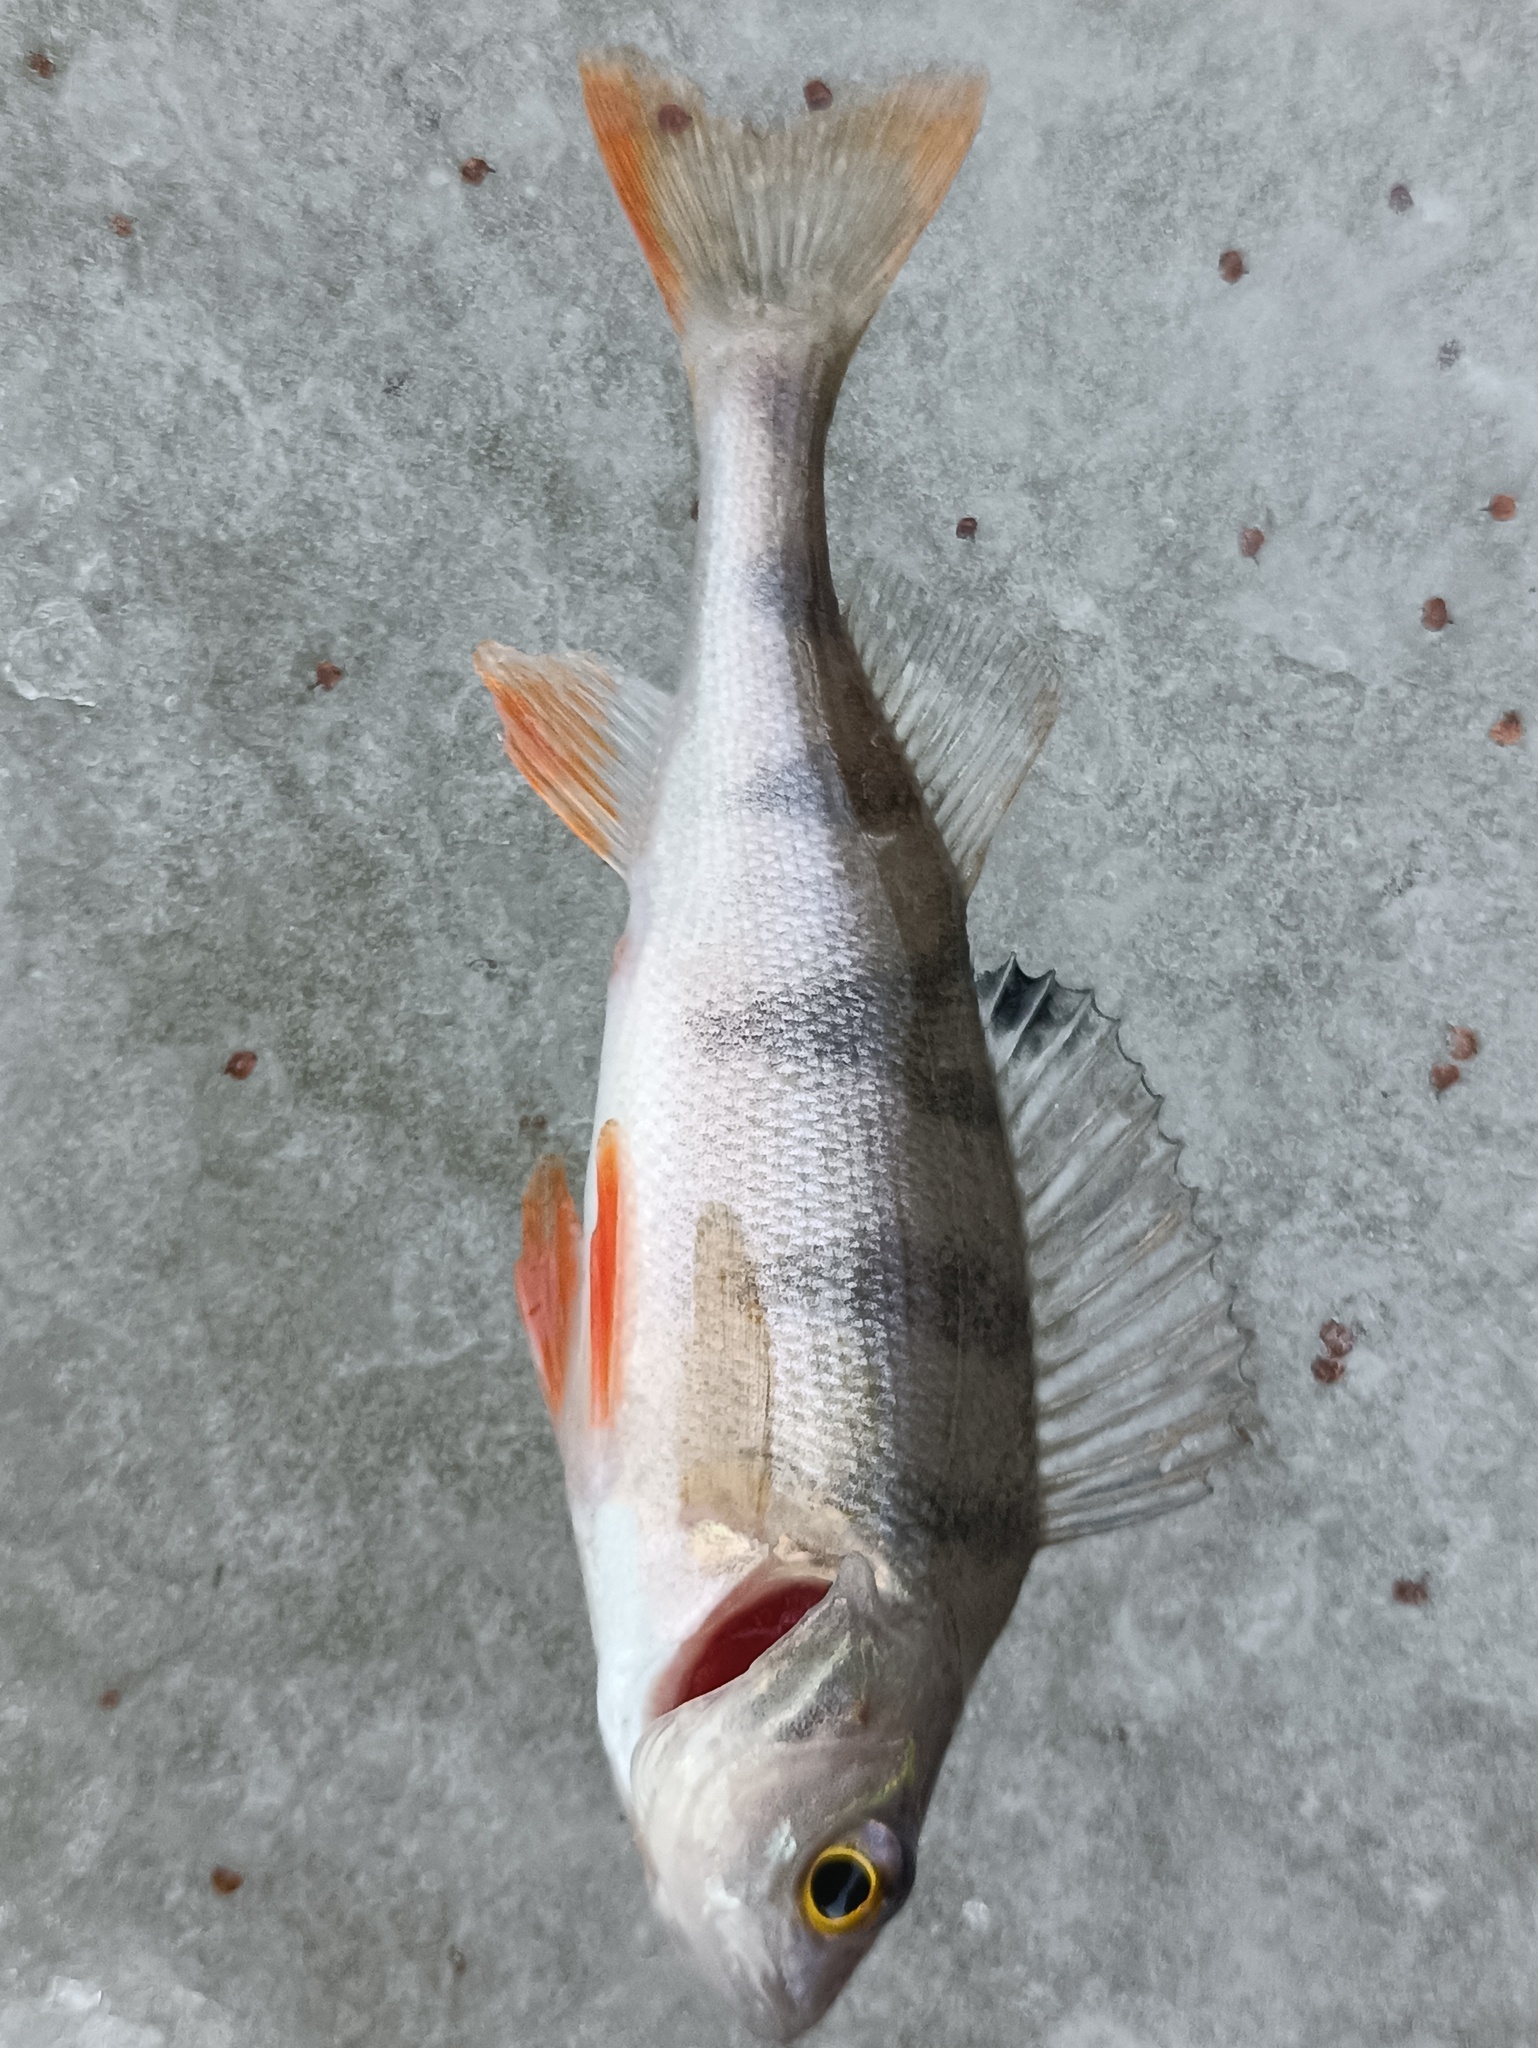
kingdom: Animalia
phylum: Chordata
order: Perciformes
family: Percidae
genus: Perca
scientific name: Perca fluviatilis
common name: Perch
